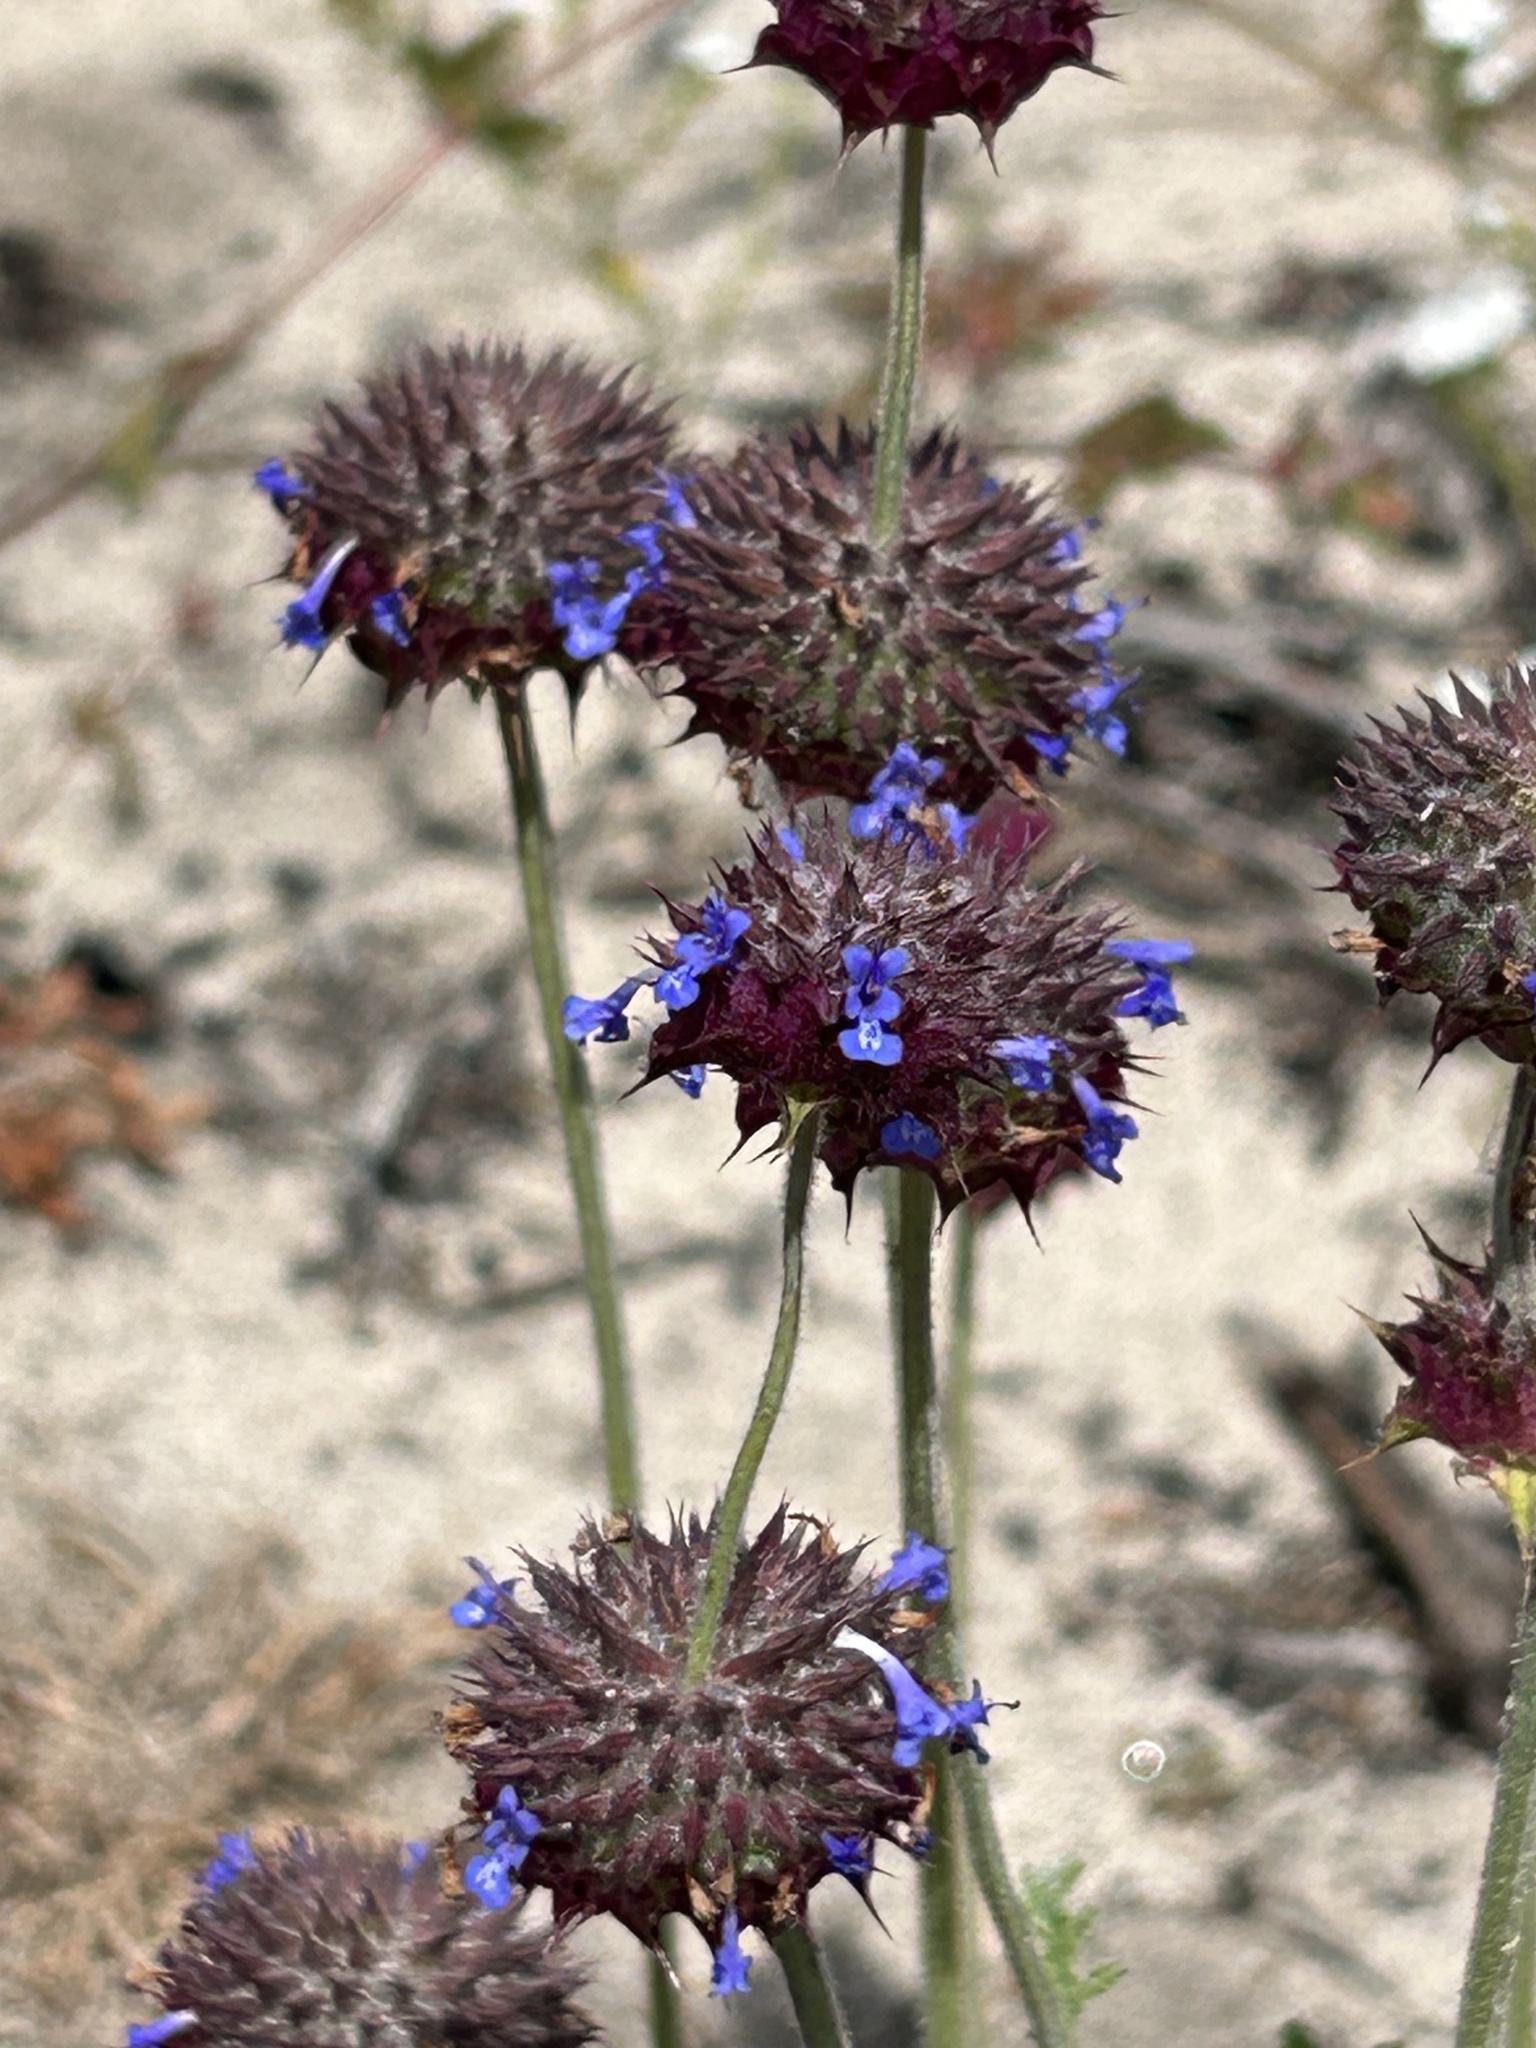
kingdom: Plantae
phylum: Tracheophyta
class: Magnoliopsida
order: Lamiales
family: Lamiaceae
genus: Salvia
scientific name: Salvia columbariae
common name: Chia
